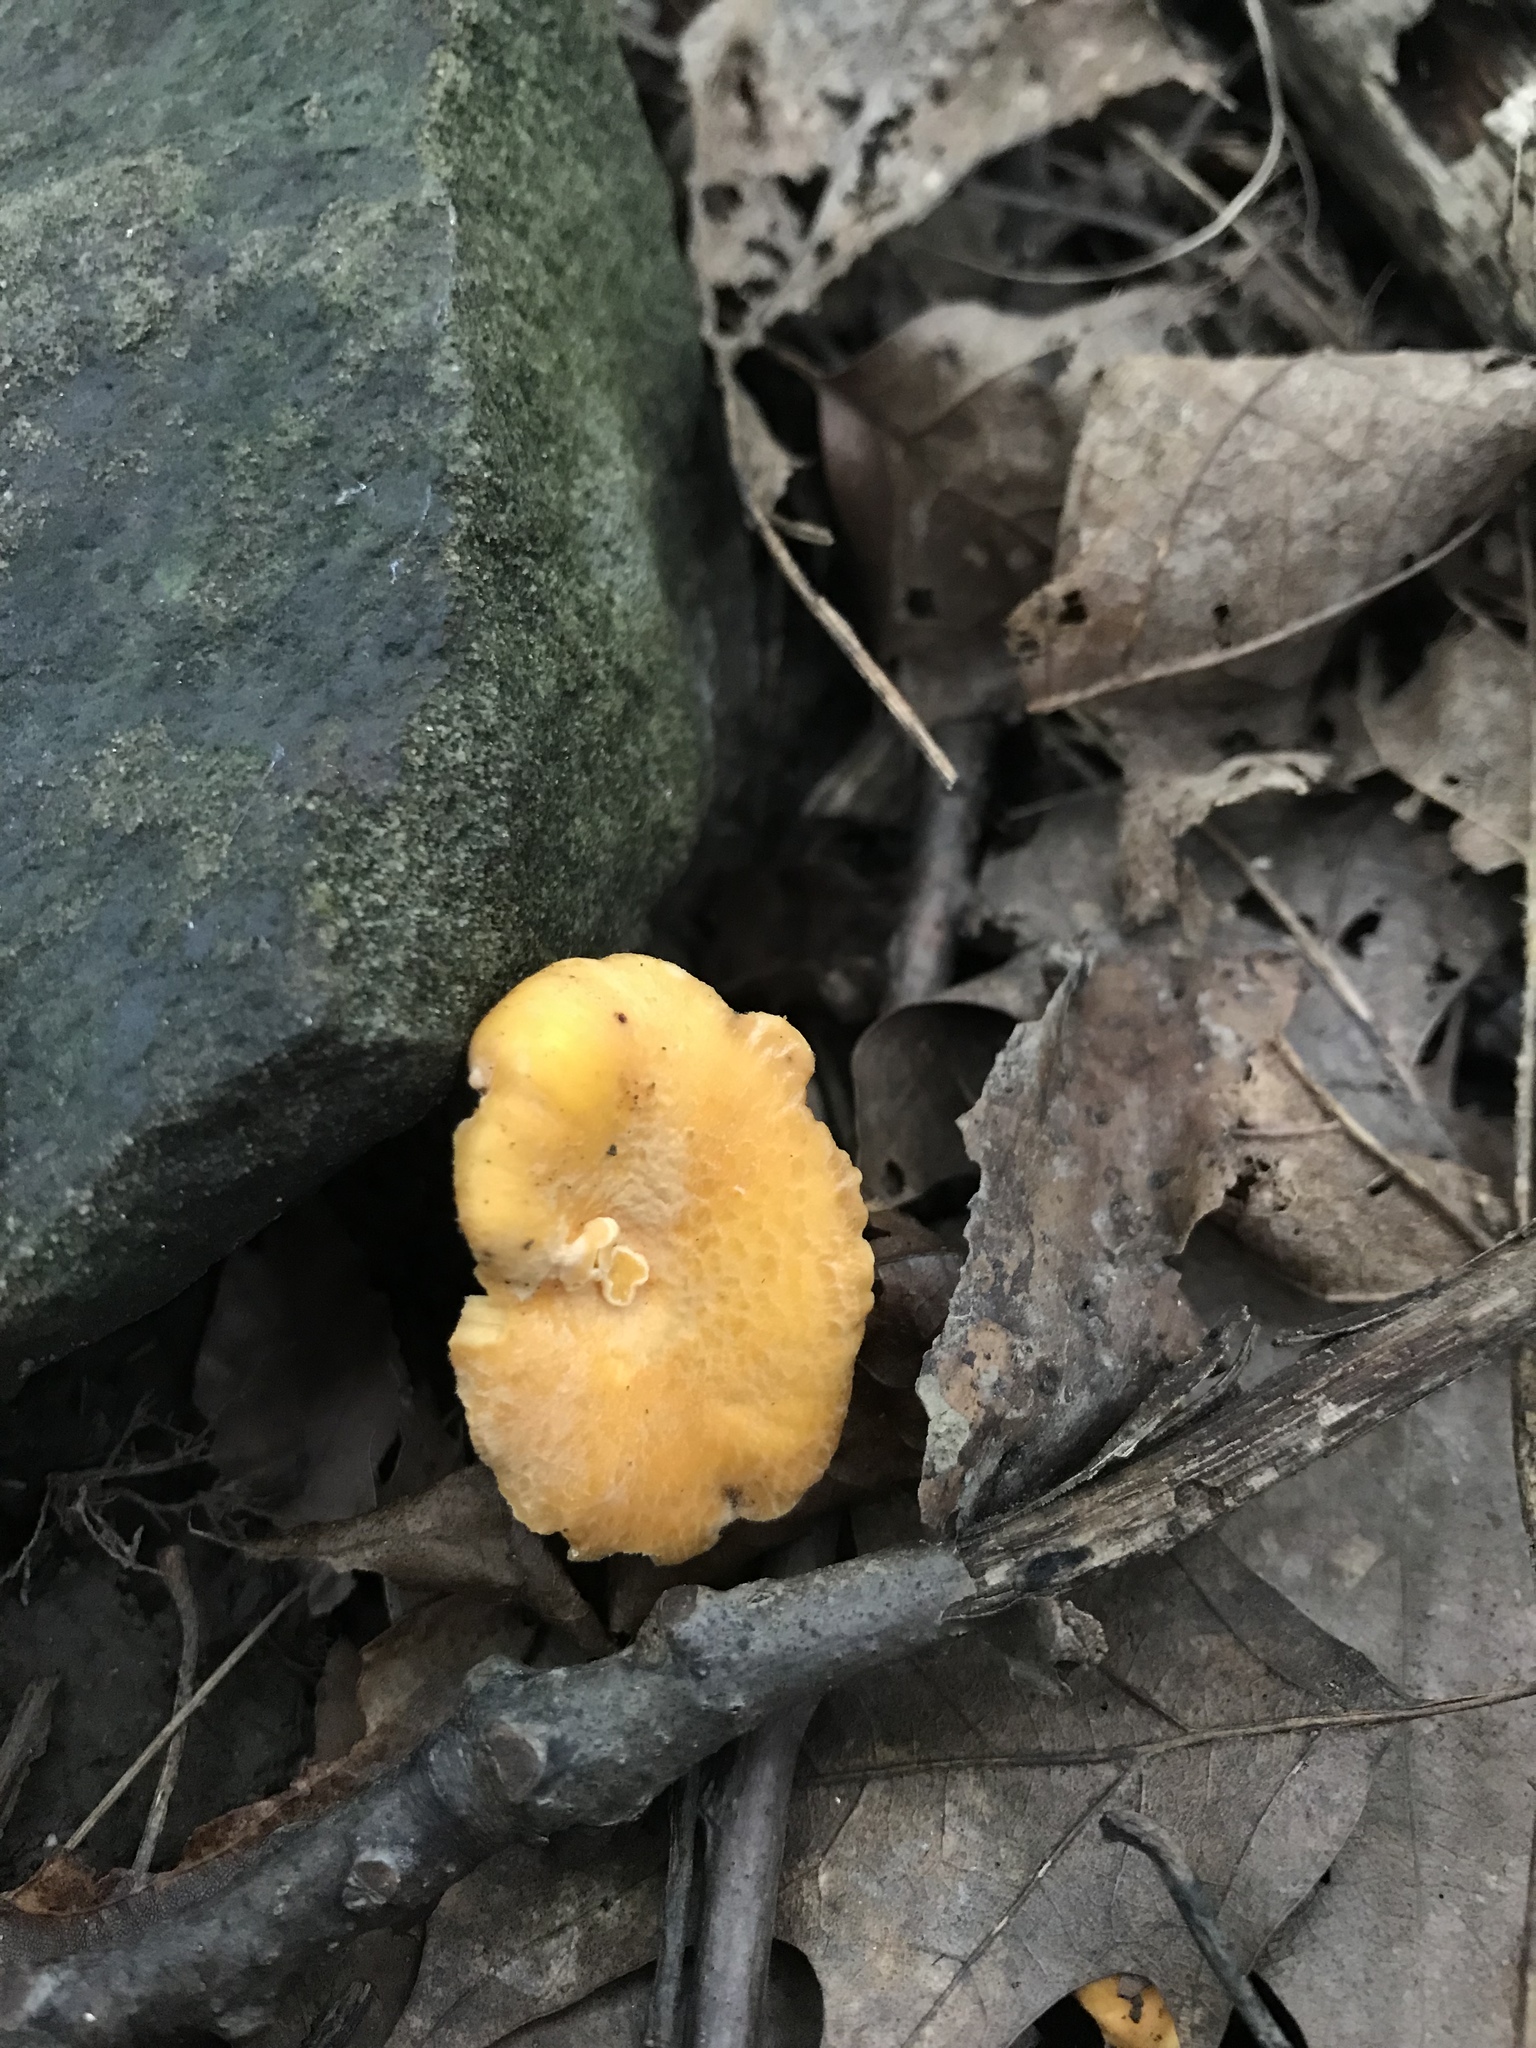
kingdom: Fungi
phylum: Basidiomycota
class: Agaricomycetes
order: Cantharellales
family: Hydnaceae
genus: Cantharellus
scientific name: Cantharellus lateritius
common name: Smooth chanterelle
